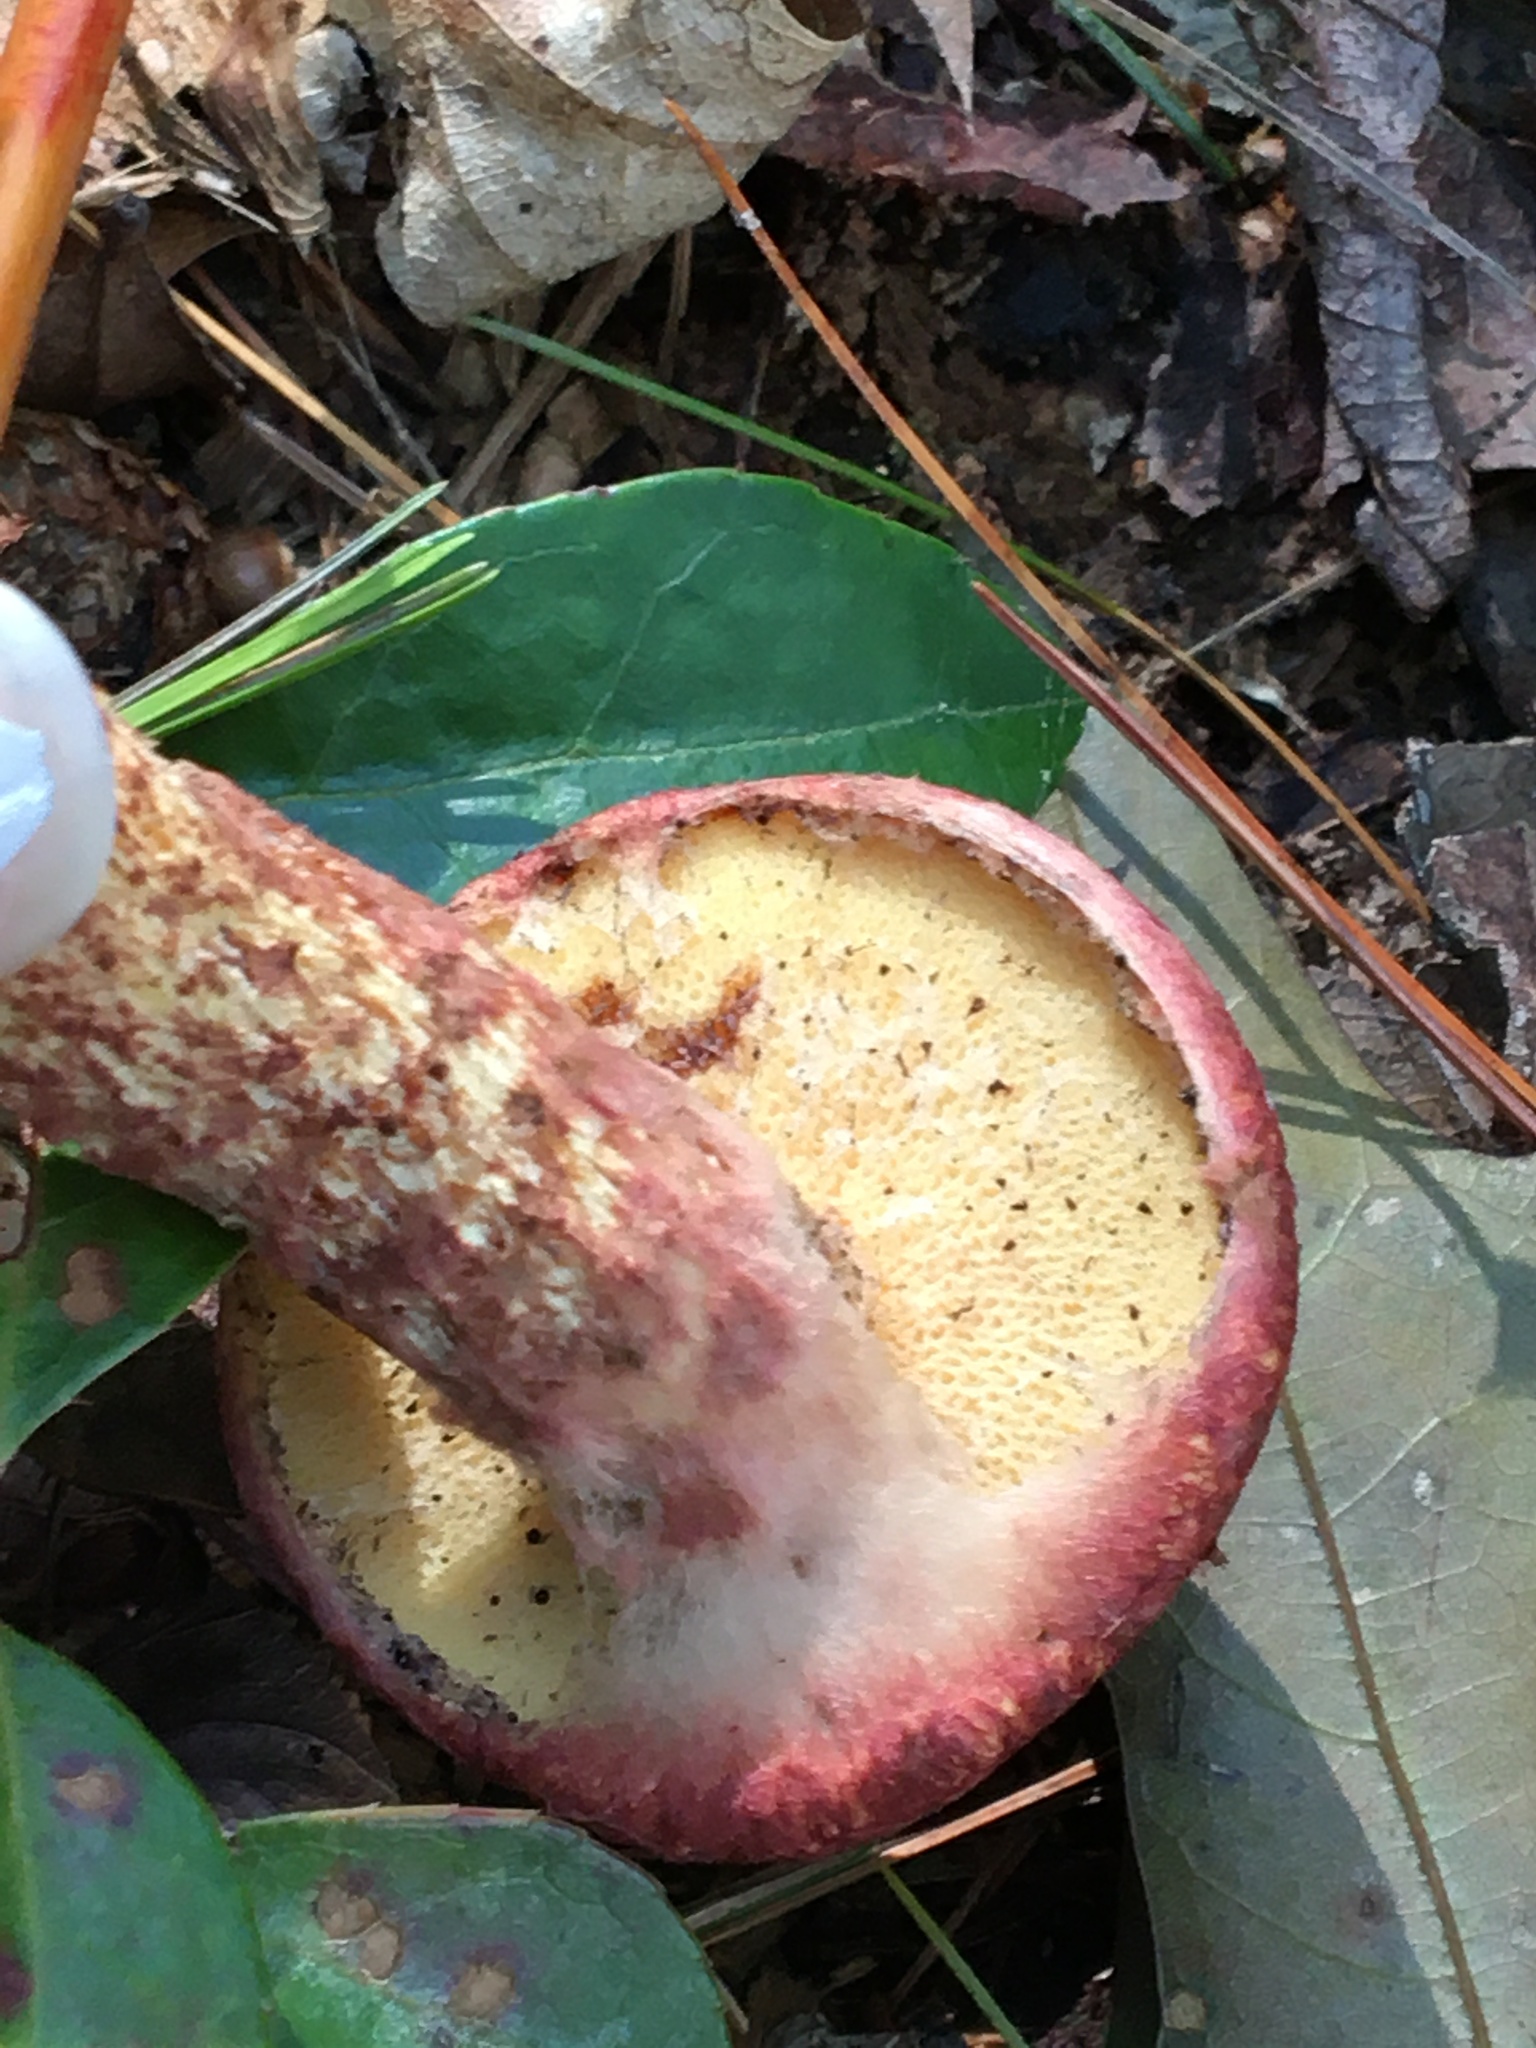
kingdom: Fungi
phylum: Basidiomycota
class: Agaricomycetes
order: Boletales
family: Suillaceae
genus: Suillus
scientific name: Suillus spraguei
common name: Painted suillus
